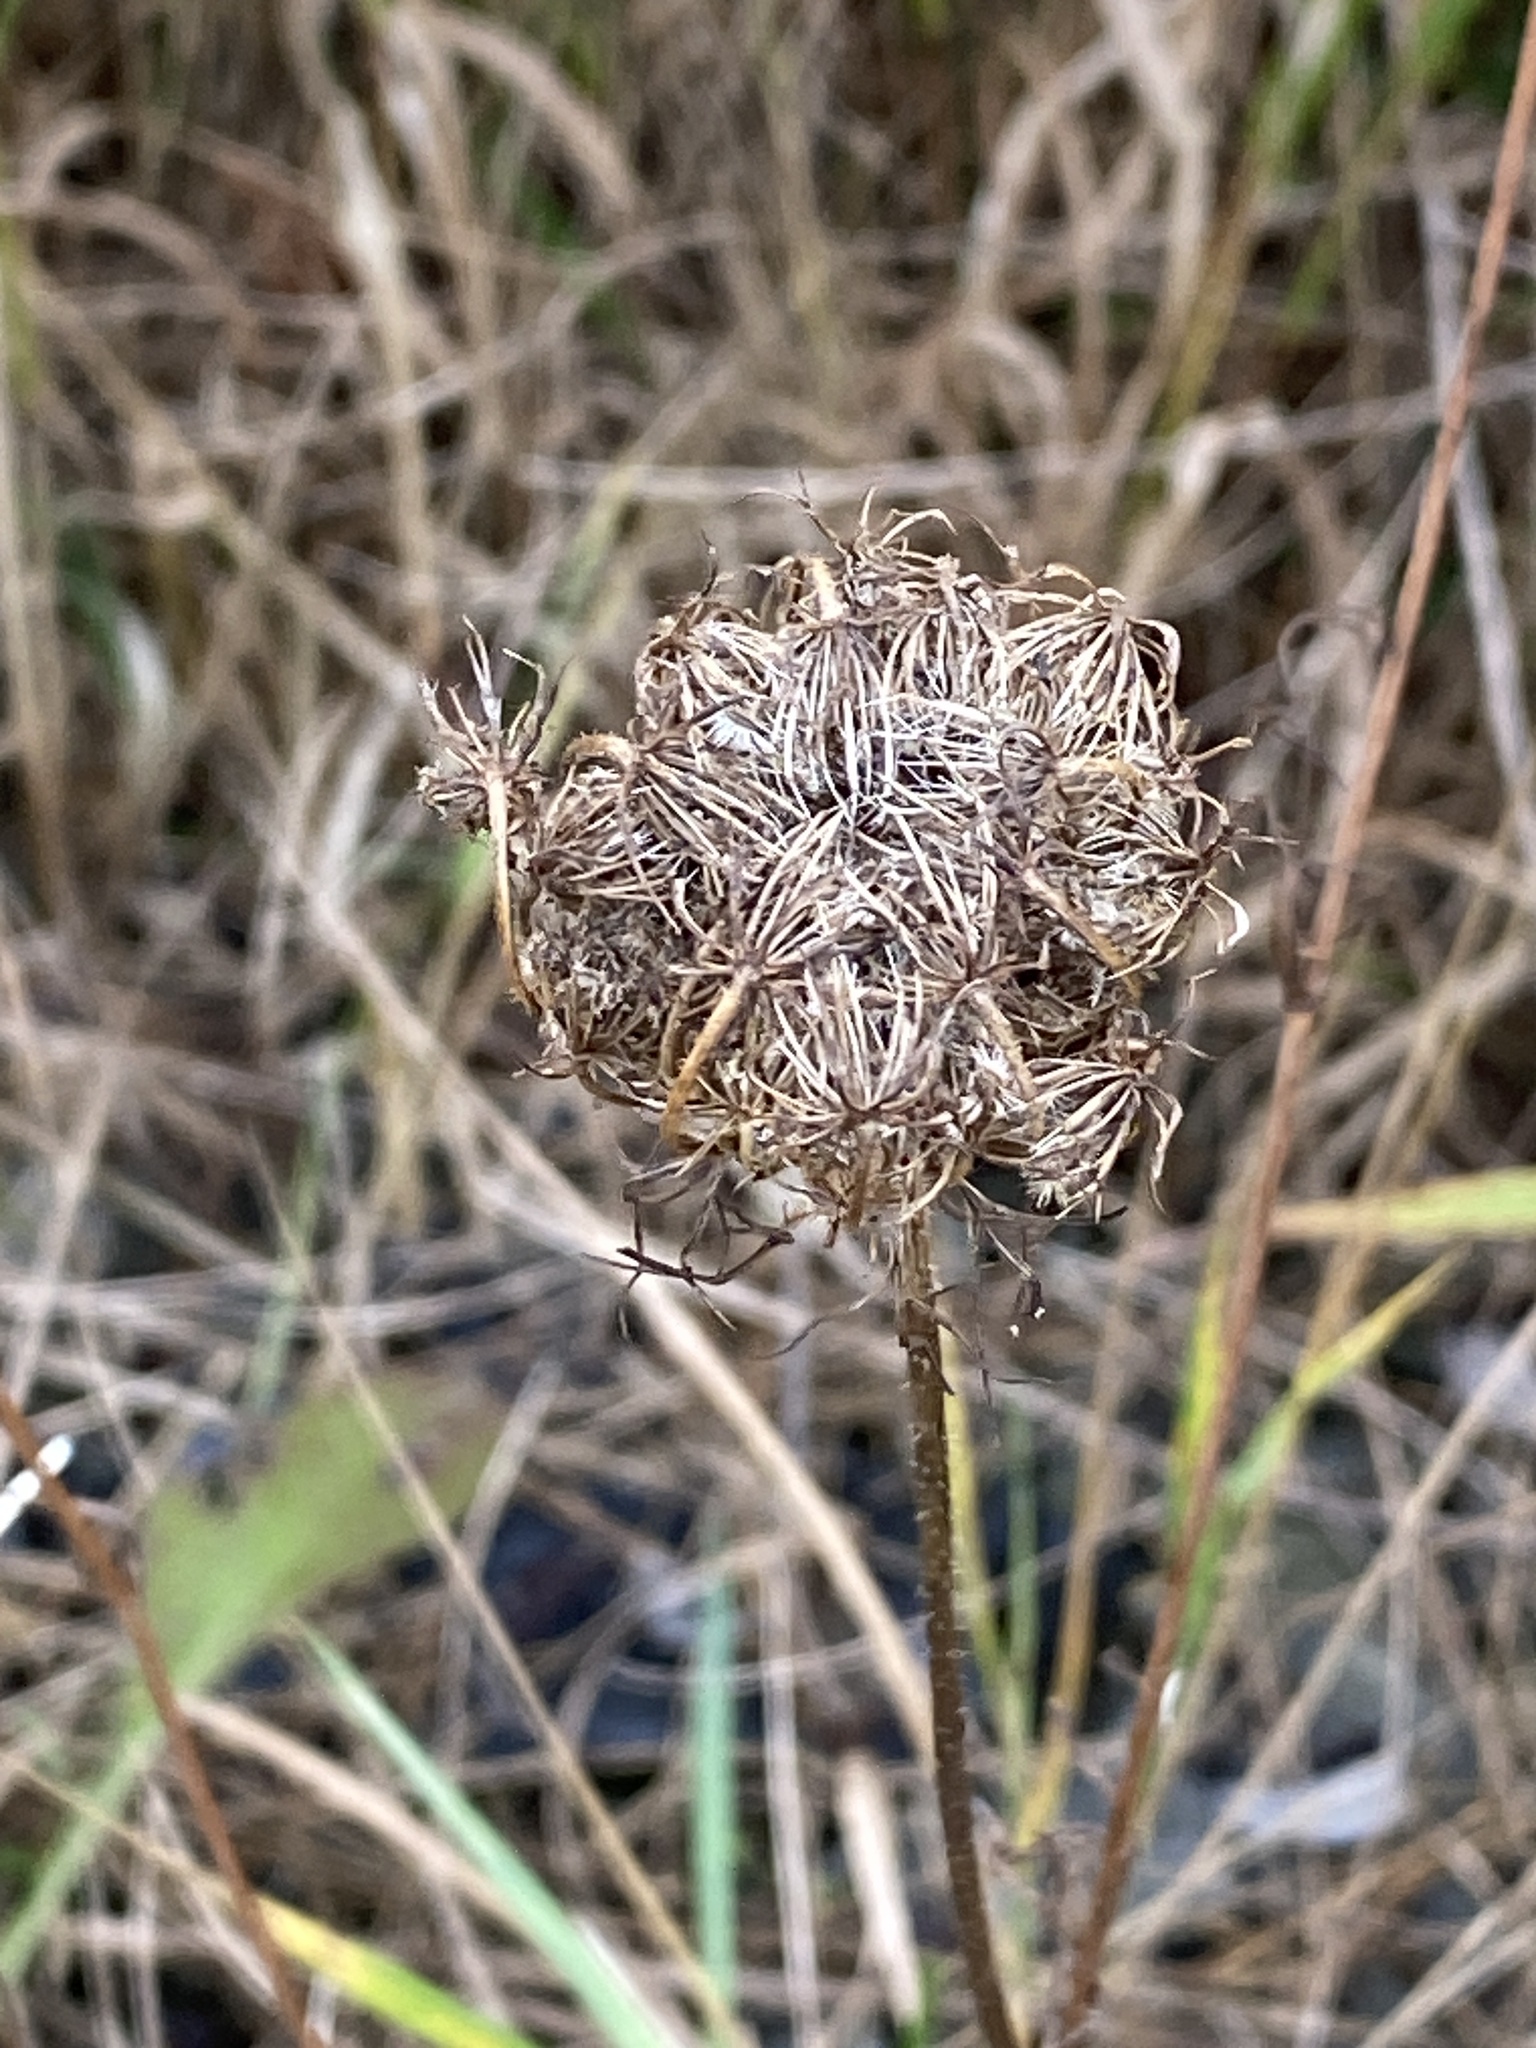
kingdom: Plantae
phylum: Tracheophyta
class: Magnoliopsida
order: Apiales
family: Apiaceae
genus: Daucus
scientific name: Daucus carota
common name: Wild carrot
